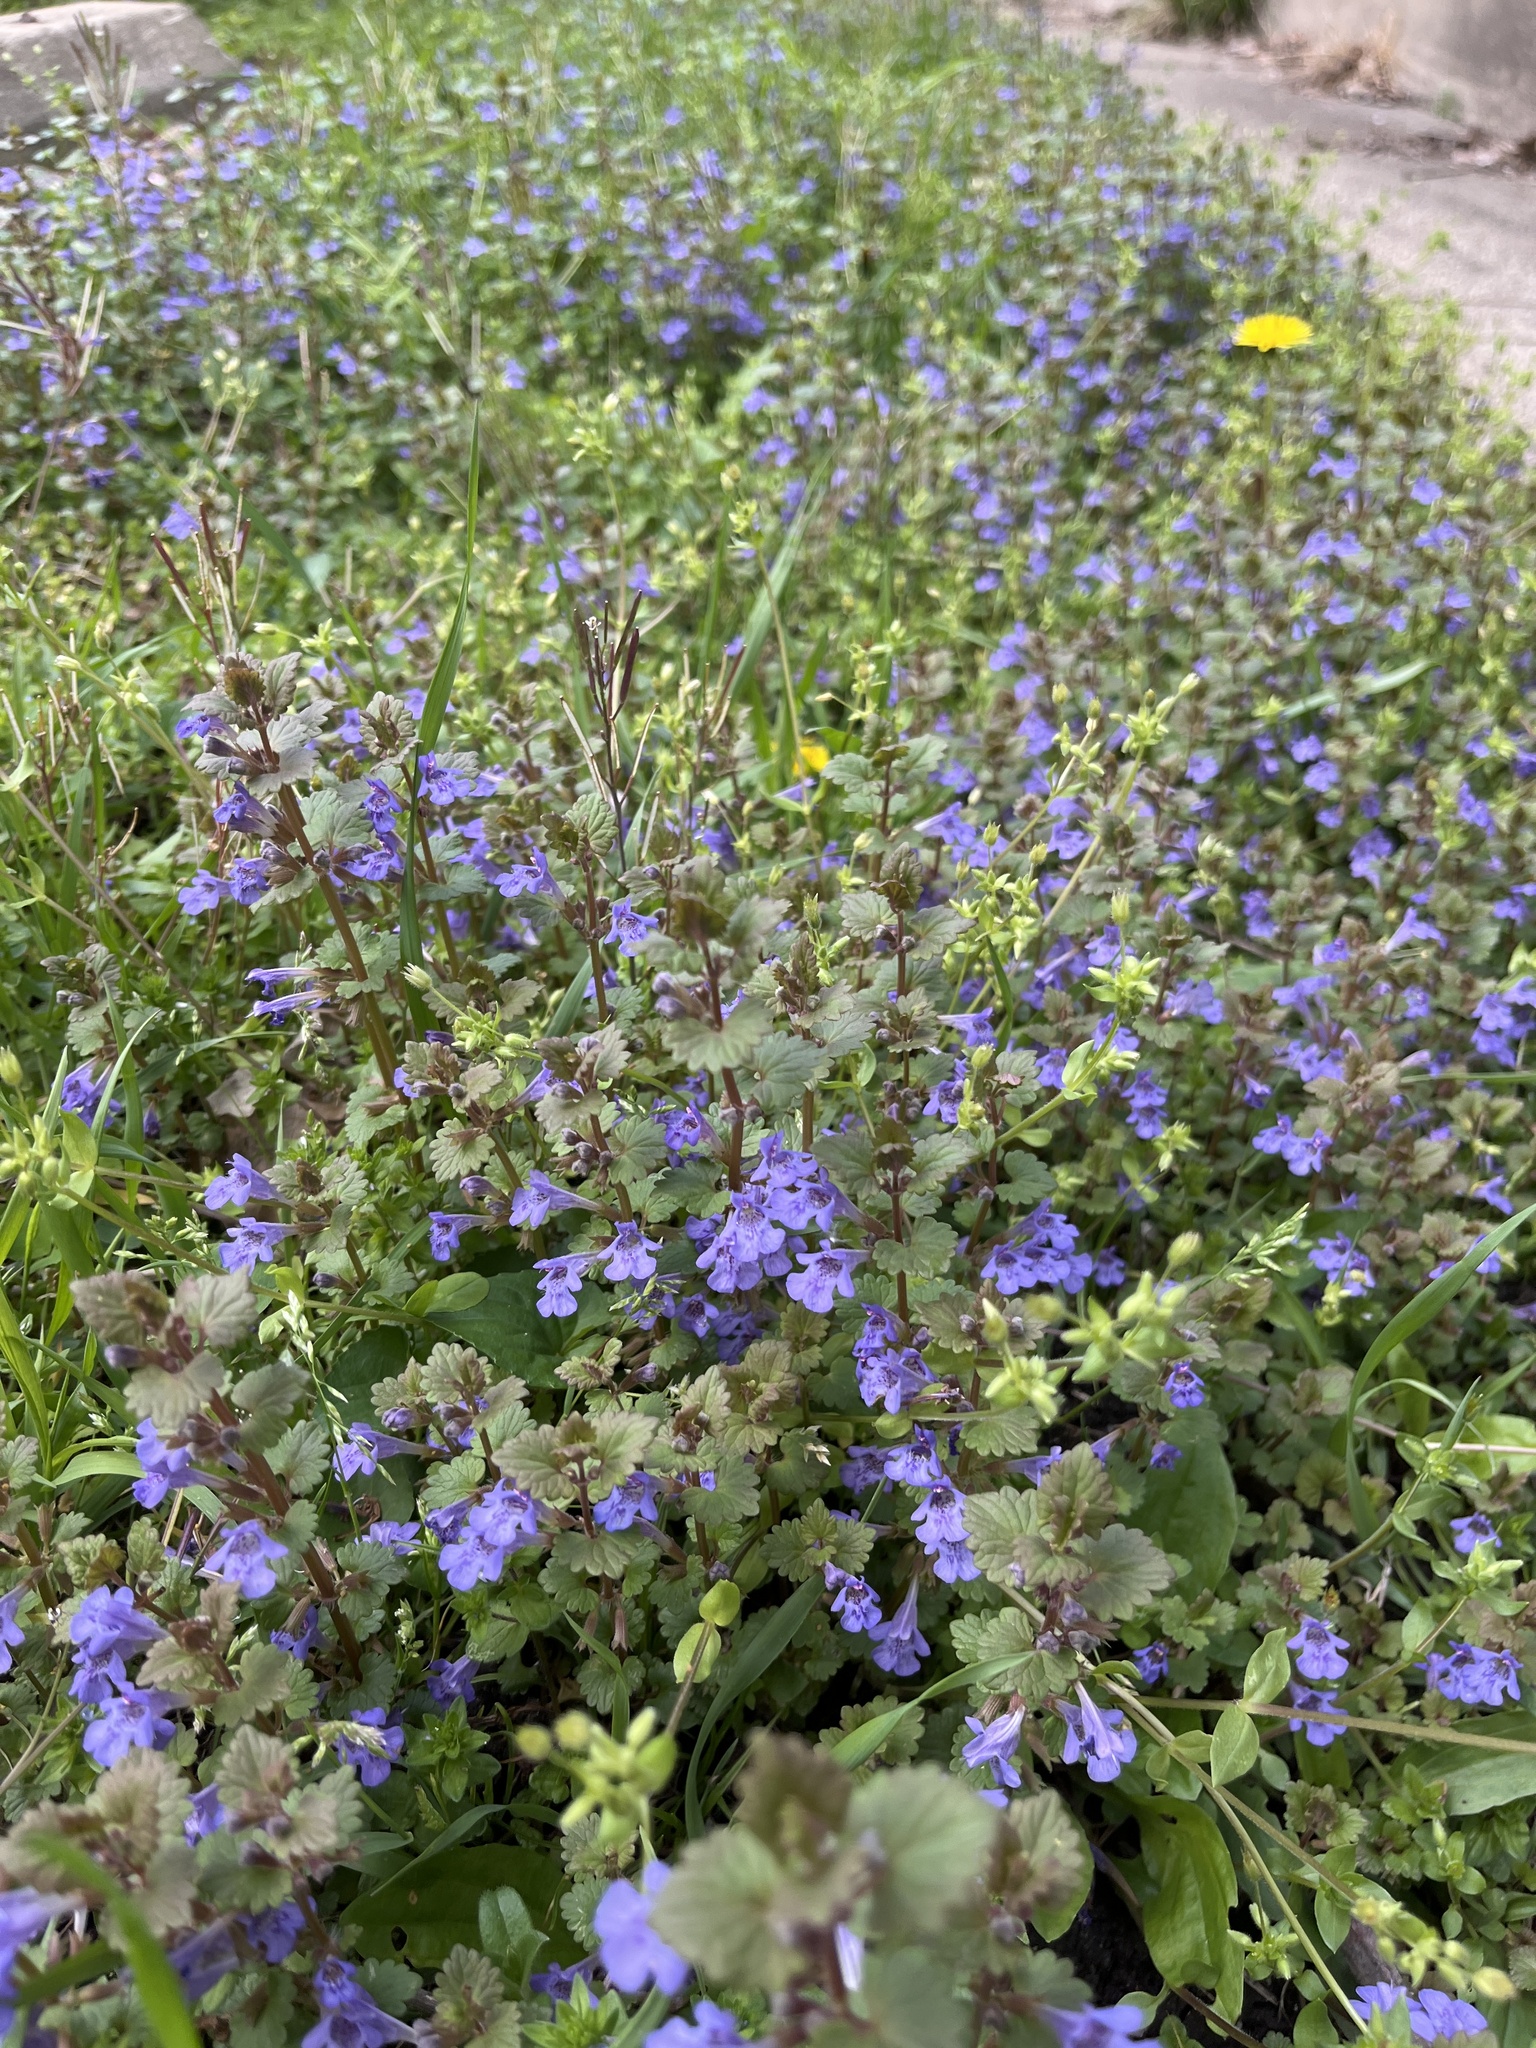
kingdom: Plantae
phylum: Tracheophyta
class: Magnoliopsida
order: Lamiales
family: Lamiaceae
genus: Glechoma
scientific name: Glechoma hederacea
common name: Ground ivy
